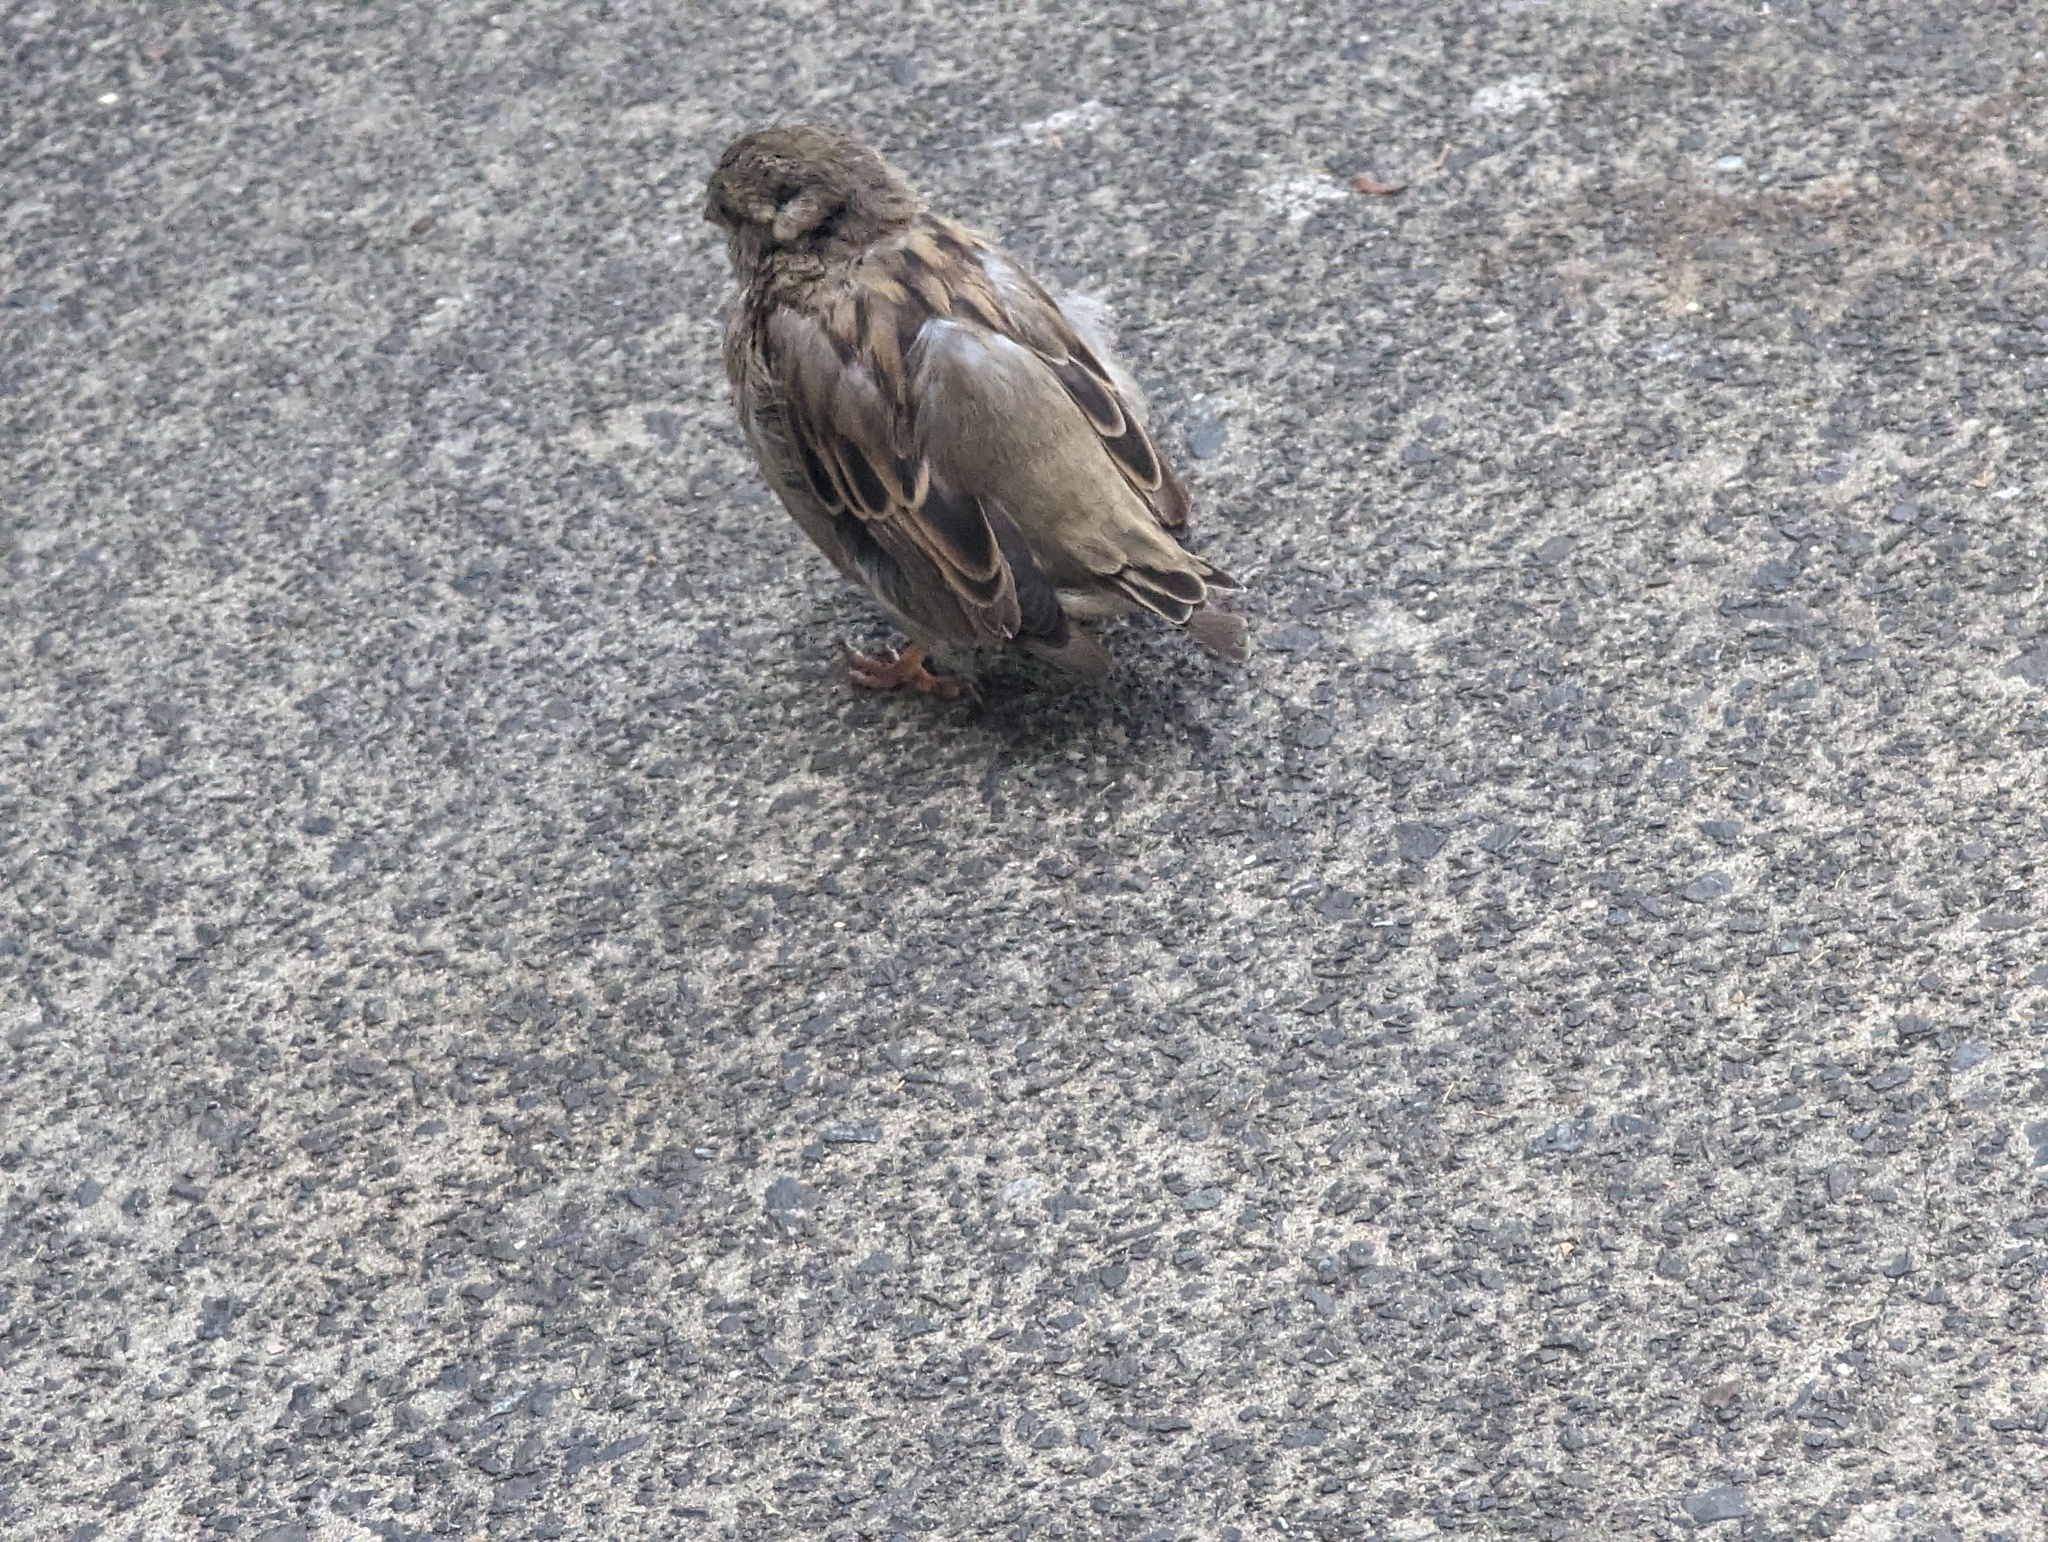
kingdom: Animalia
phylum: Chordata
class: Aves
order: Passeriformes
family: Passeridae
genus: Passer
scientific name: Passer domesticus
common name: House sparrow
